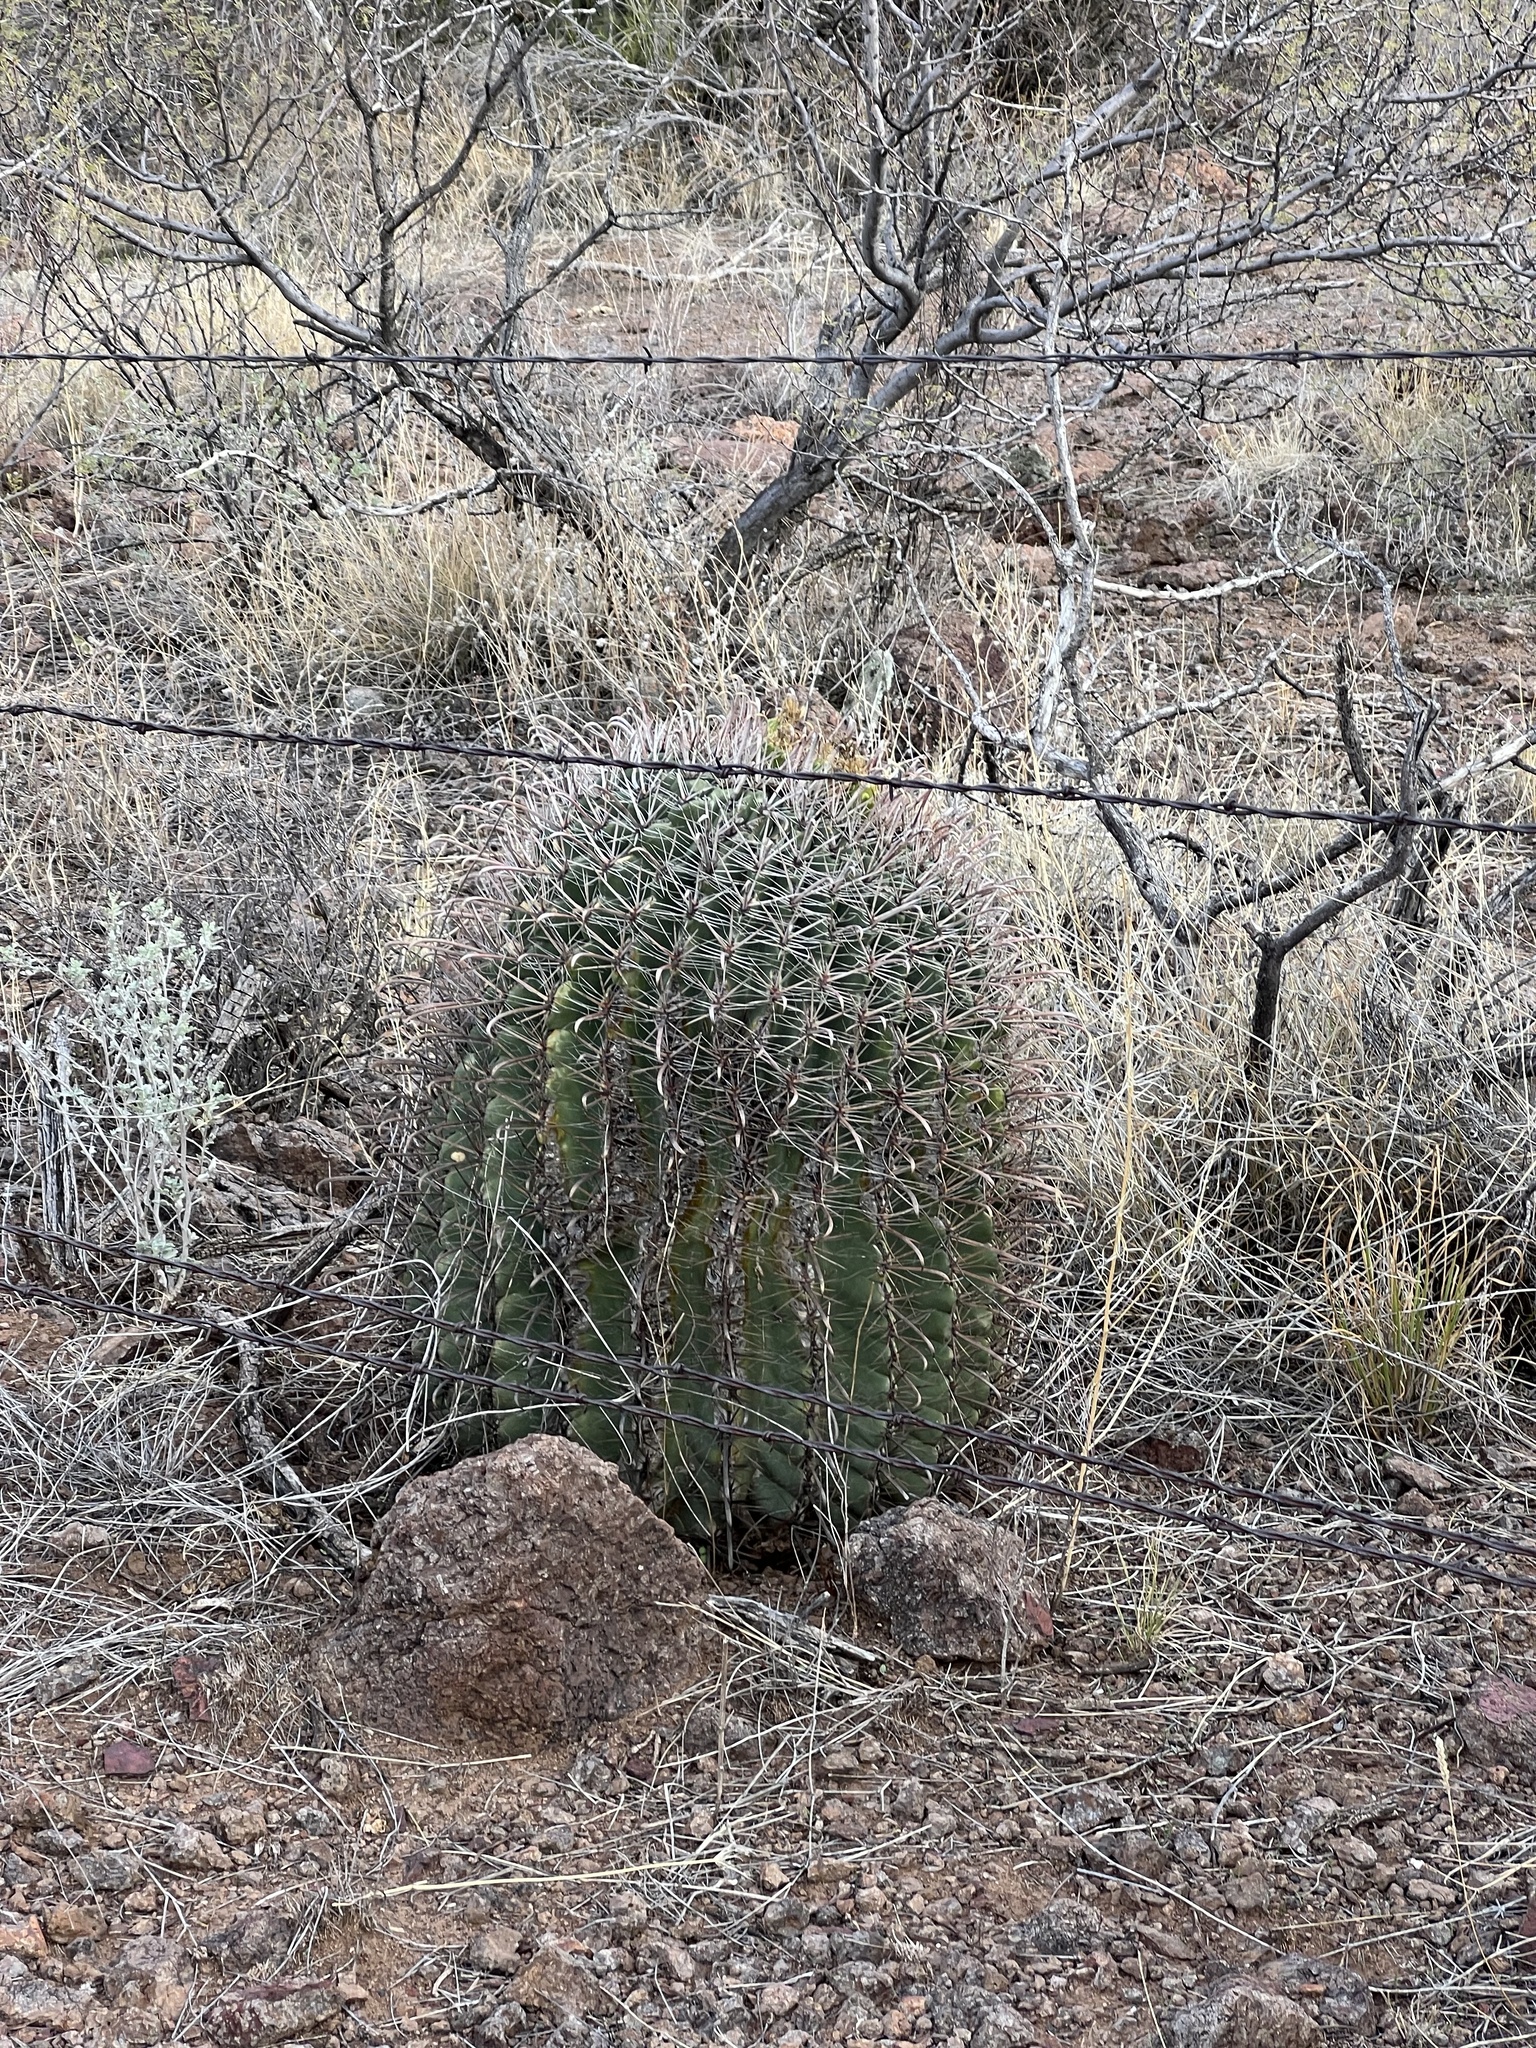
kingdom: Plantae
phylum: Tracheophyta
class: Magnoliopsida
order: Caryophyllales
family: Cactaceae
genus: Ferocactus
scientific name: Ferocactus wislizeni
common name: Candy barrel cactus
